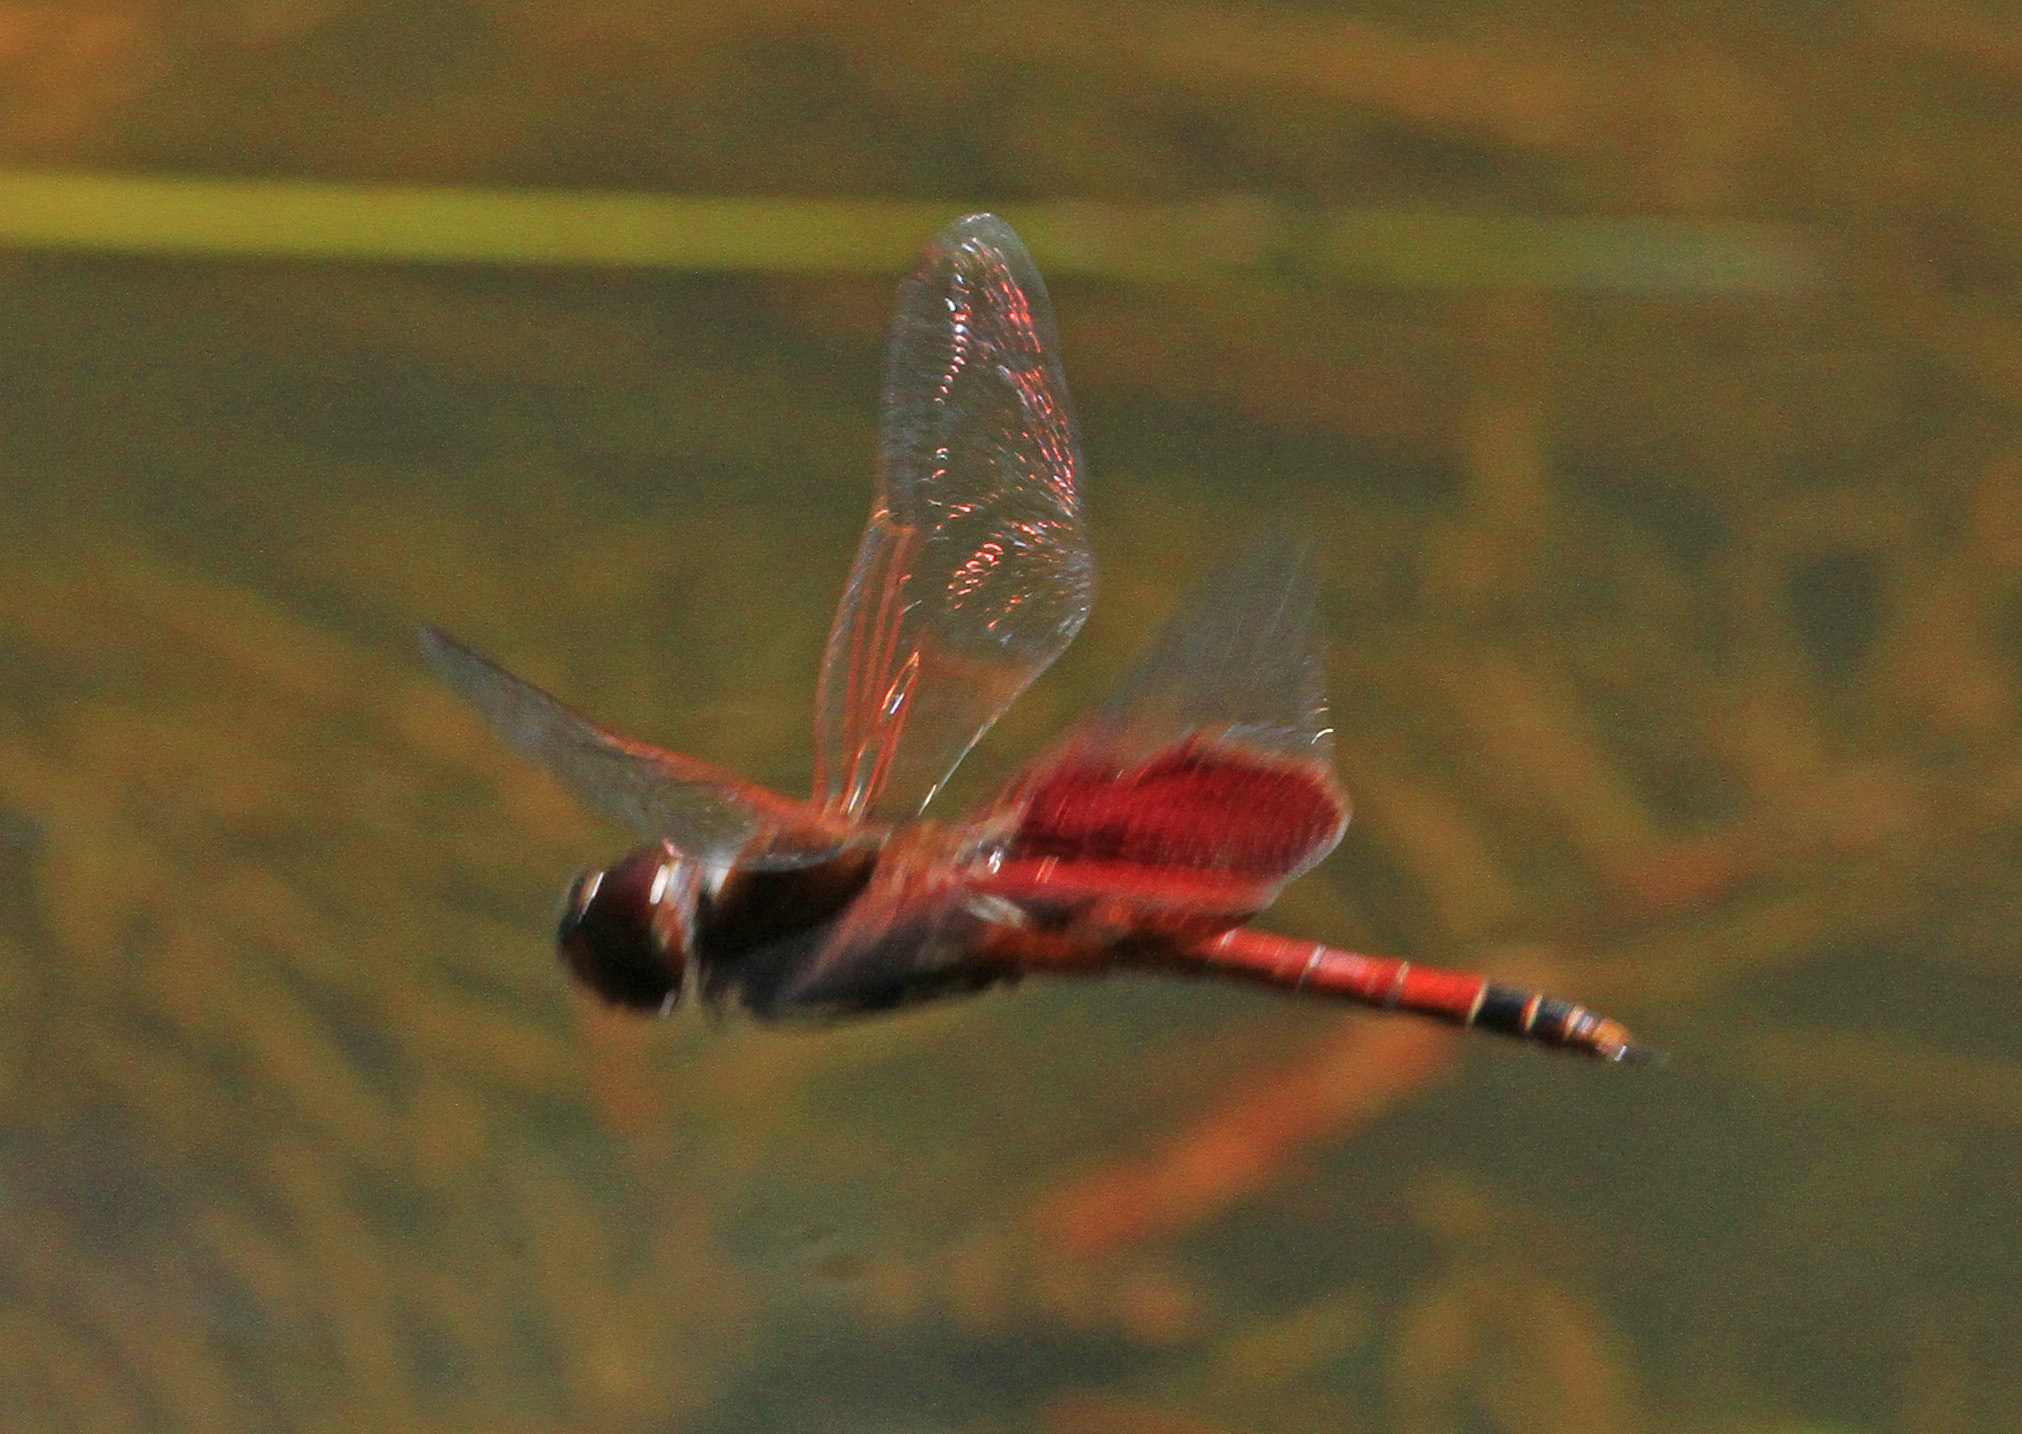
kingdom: Animalia
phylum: Arthropoda
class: Insecta
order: Odonata
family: Libellulidae
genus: Tramea
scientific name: Tramea carolina
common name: Carolina saddlebags
